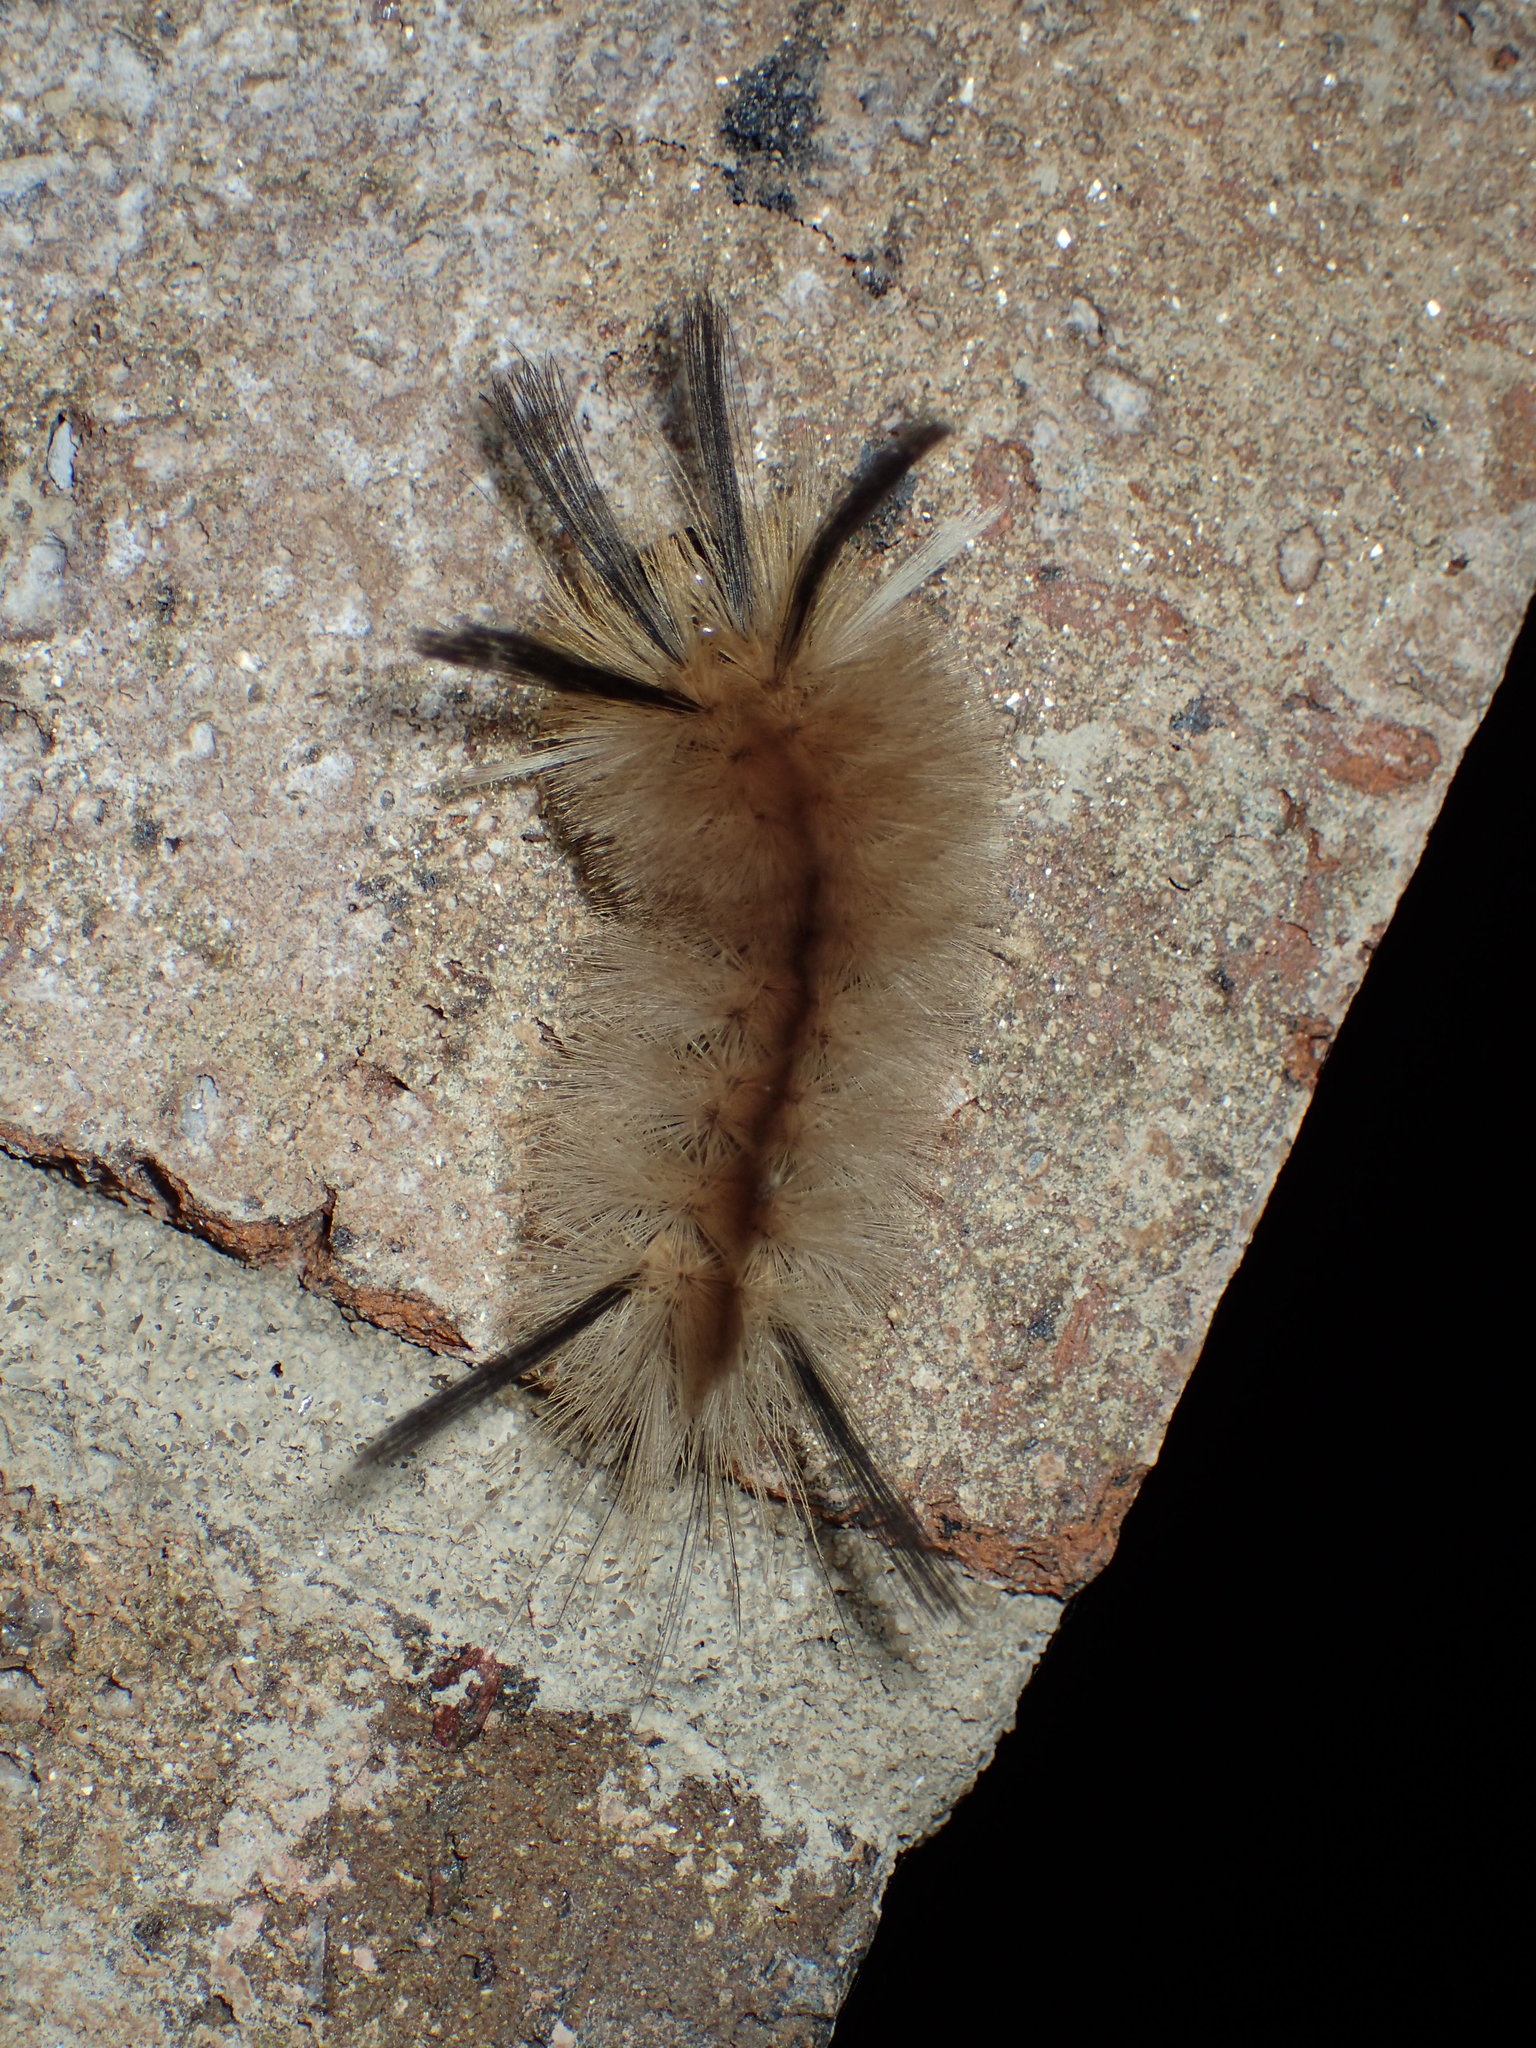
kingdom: Animalia
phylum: Arthropoda
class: Insecta
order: Lepidoptera
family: Erebidae
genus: Halysidota
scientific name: Halysidota tessellaris
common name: Banded tussock moth
